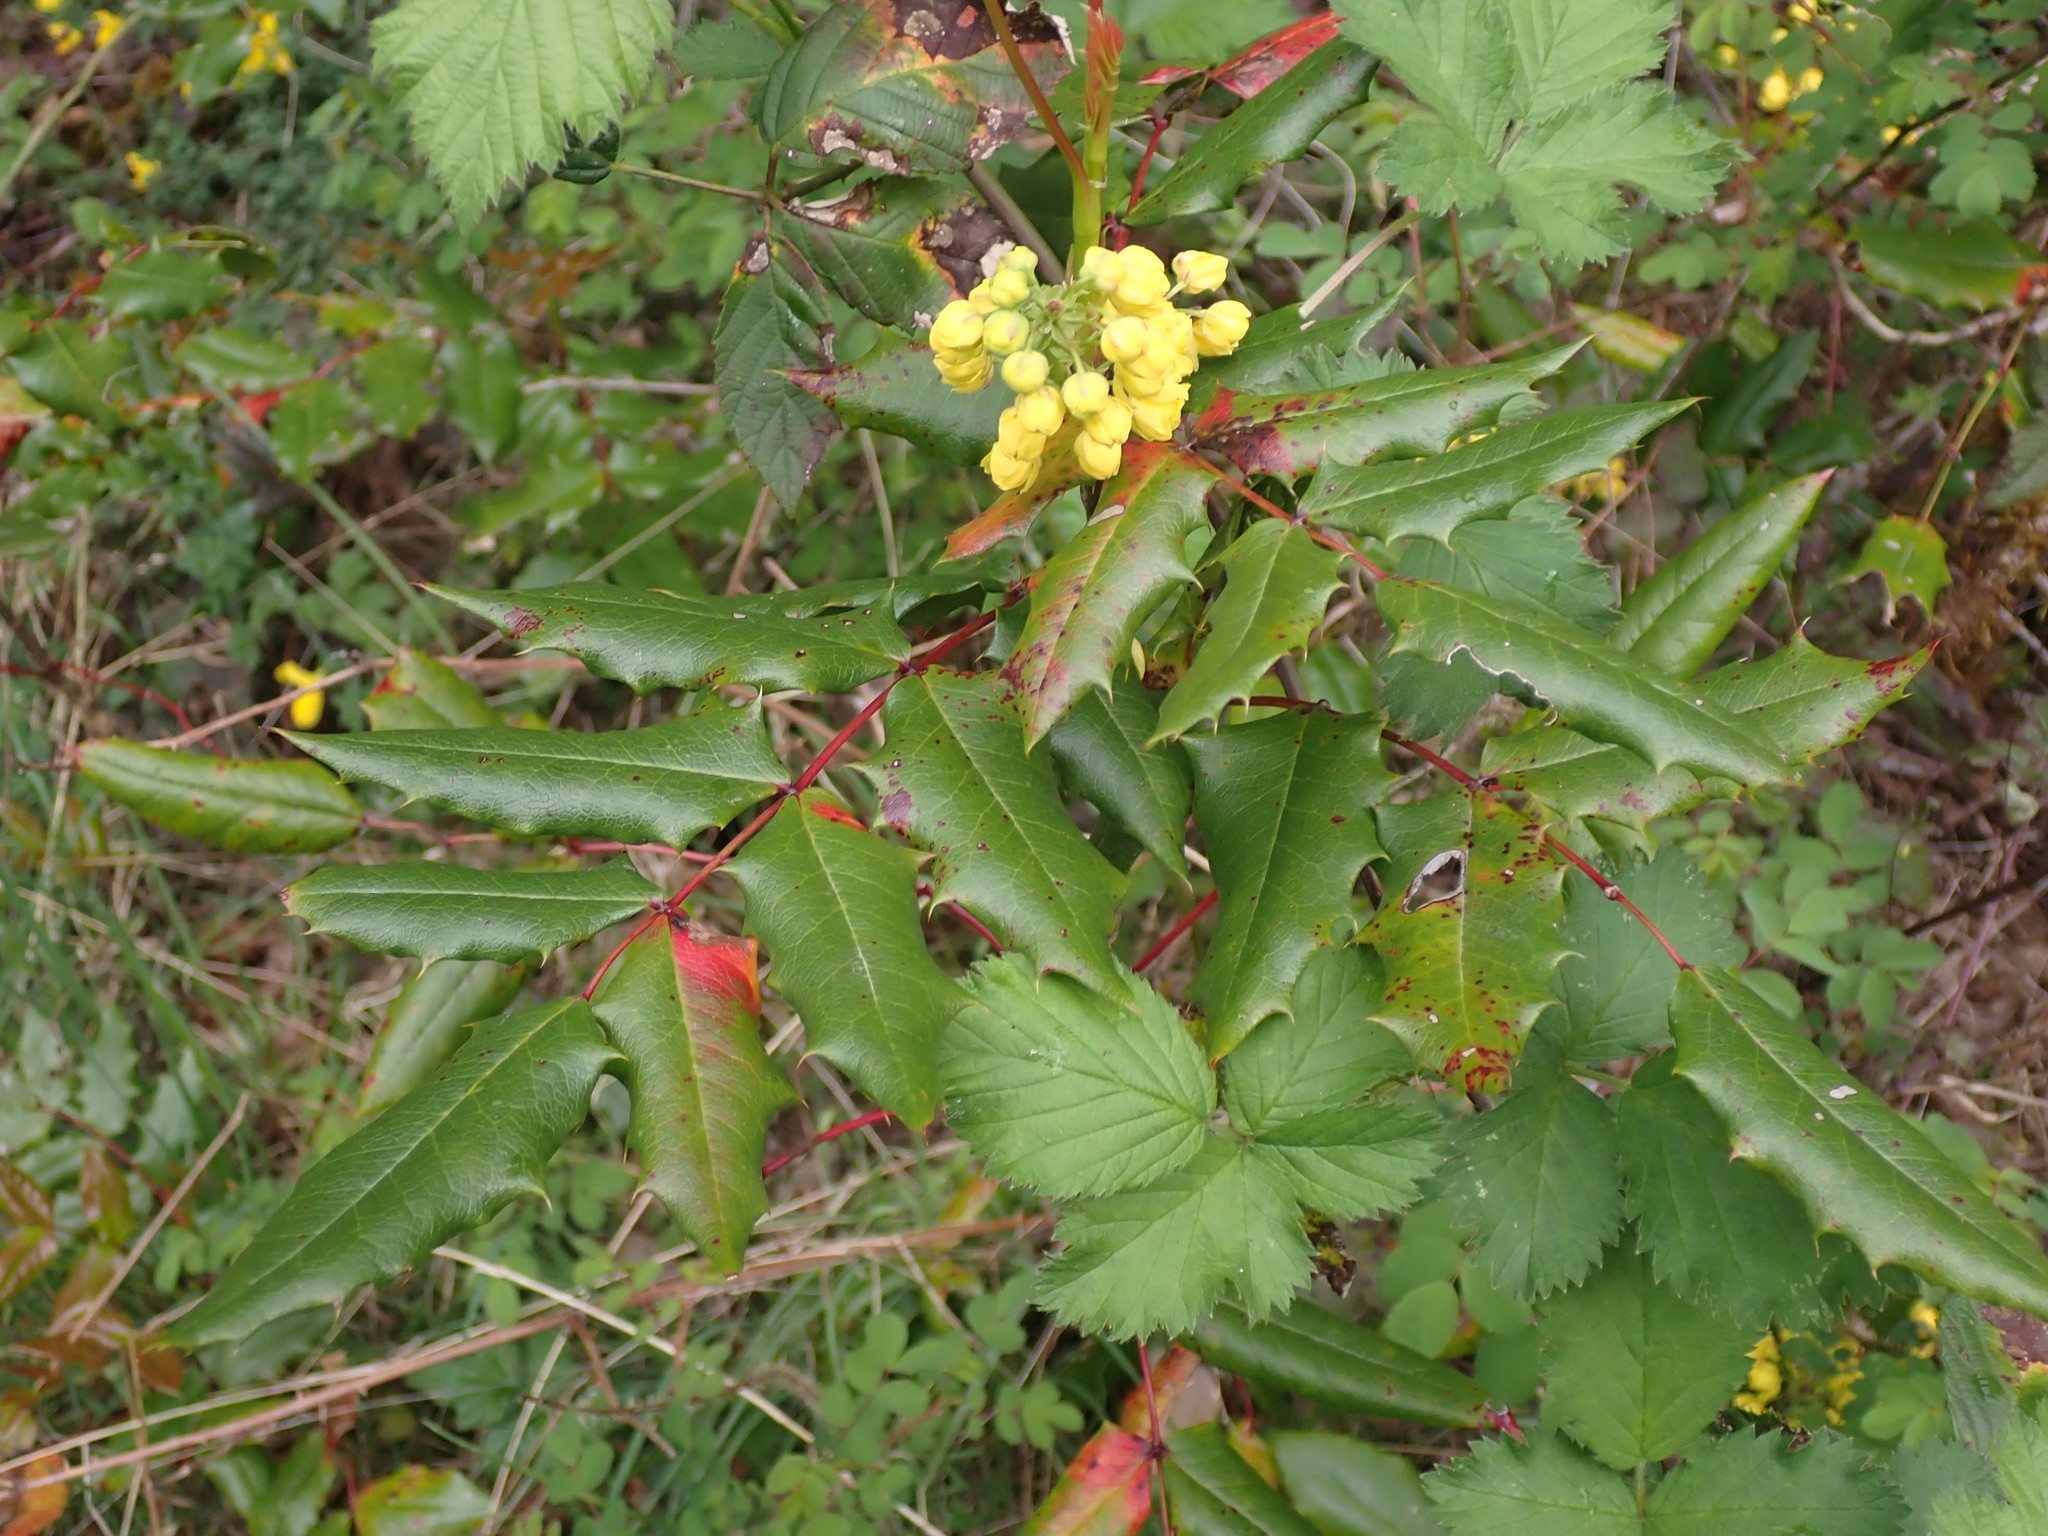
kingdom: Plantae
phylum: Tracheophyta
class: Magnoliopsida
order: Ranunculales
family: Berberidaceae
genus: Mahonia
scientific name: Mahonia aquifolium
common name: Oregon-grape
